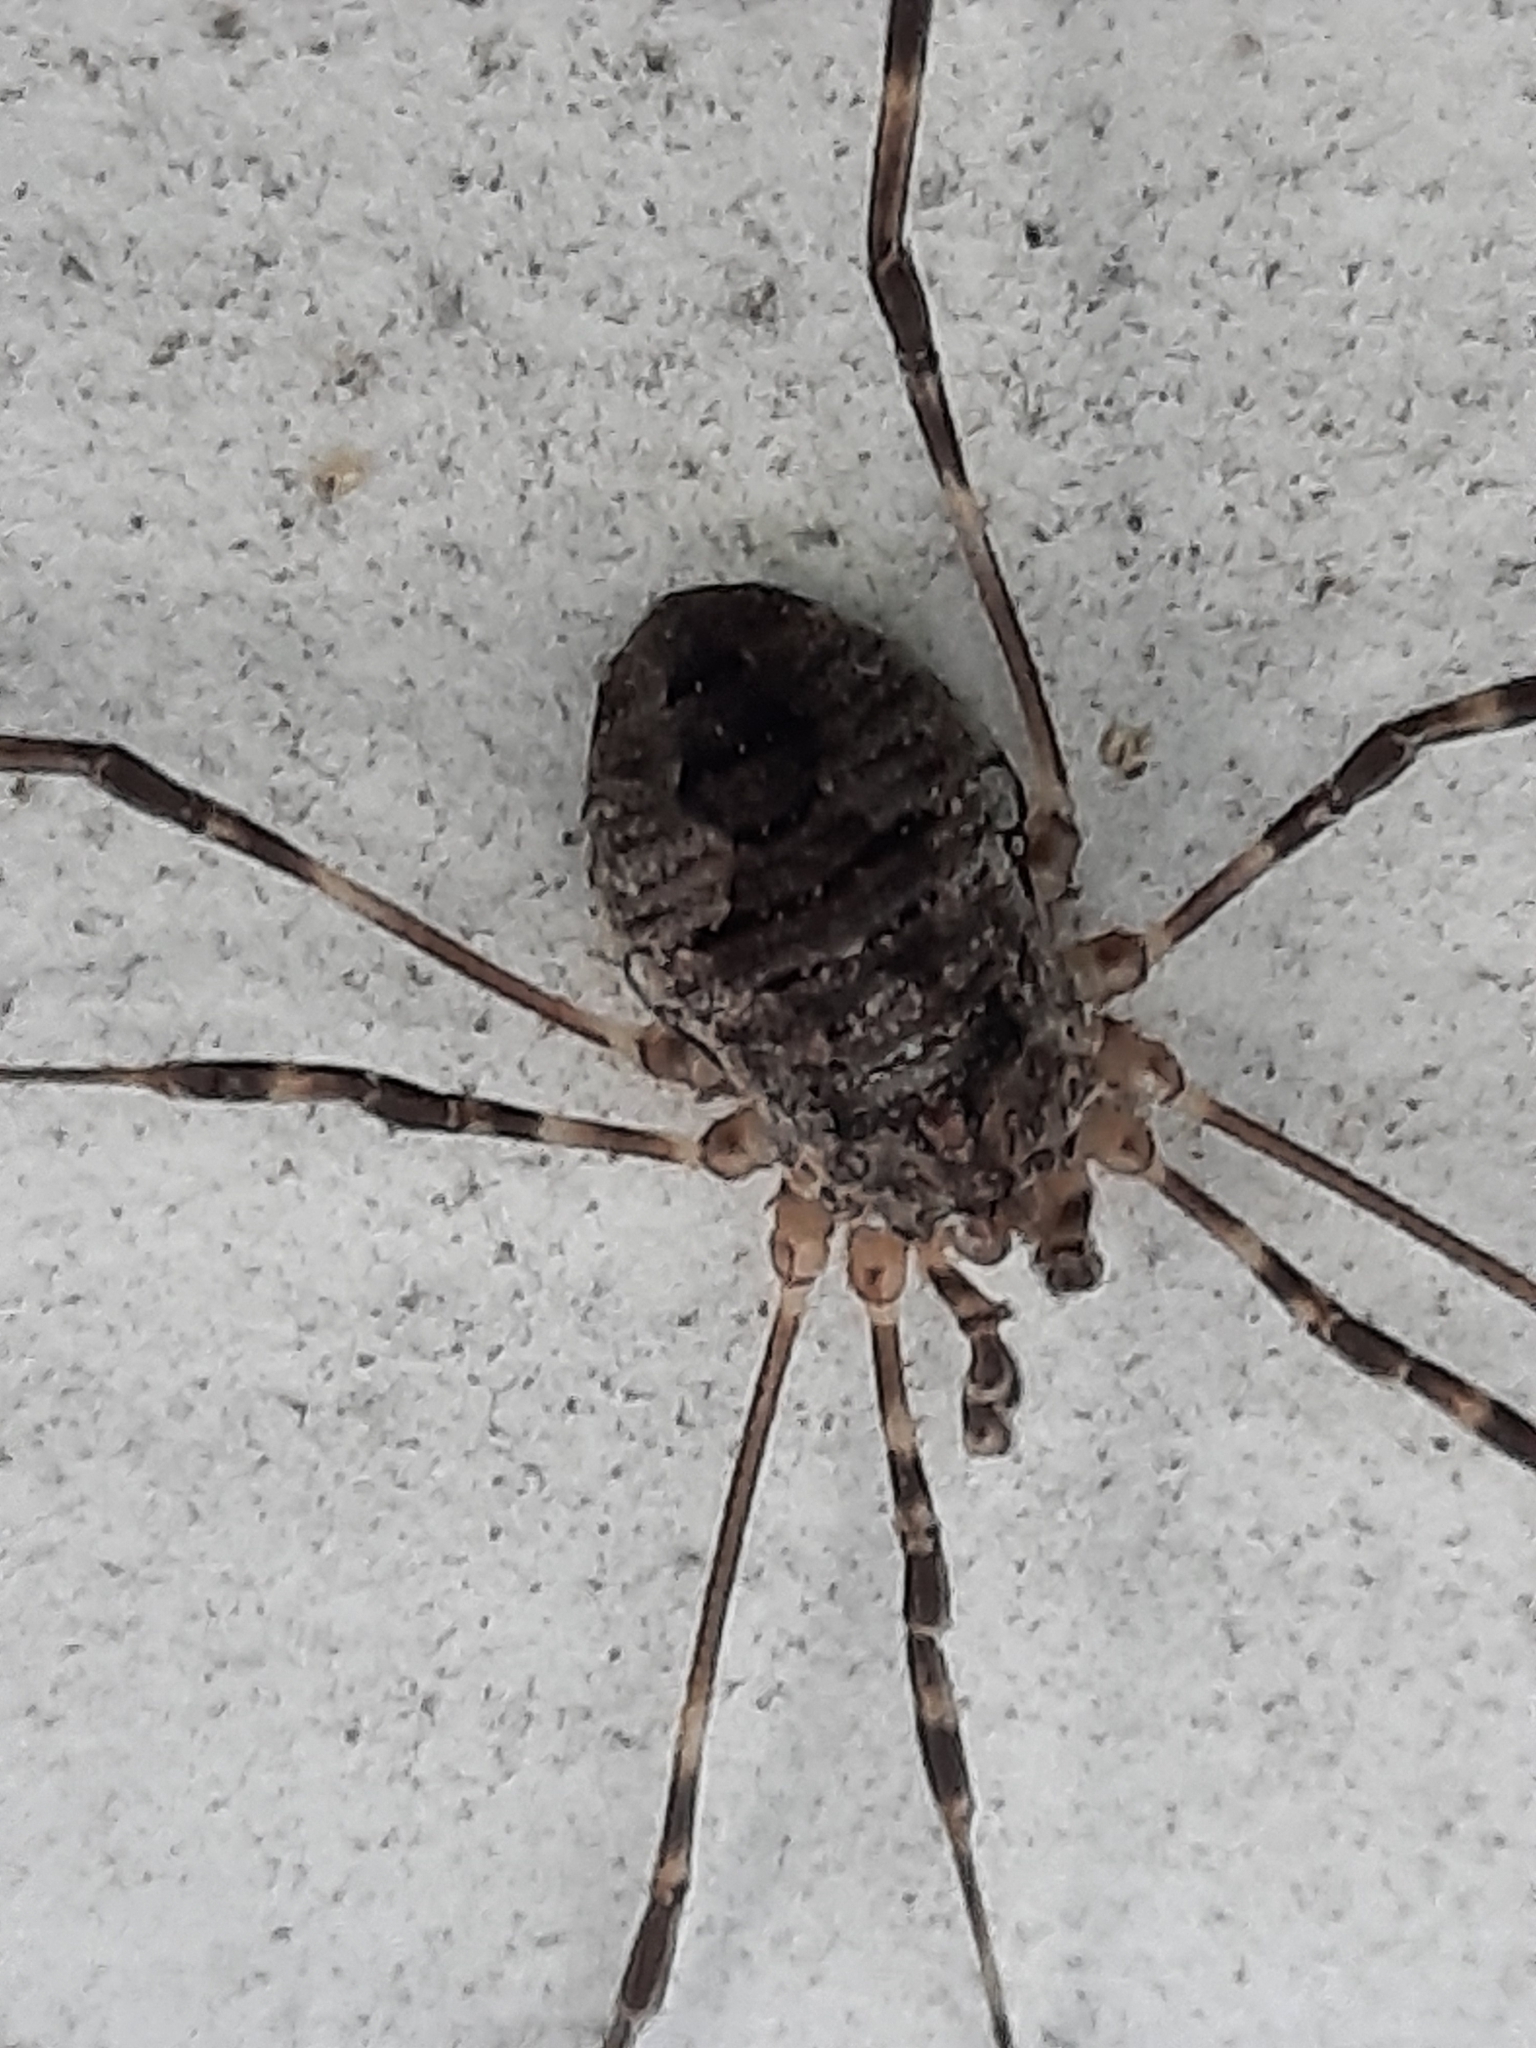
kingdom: Animalia
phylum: Arthropoda
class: Arachnida
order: Opiliones
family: Phalangiidae
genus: Odiellus
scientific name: Odiellus pictus
